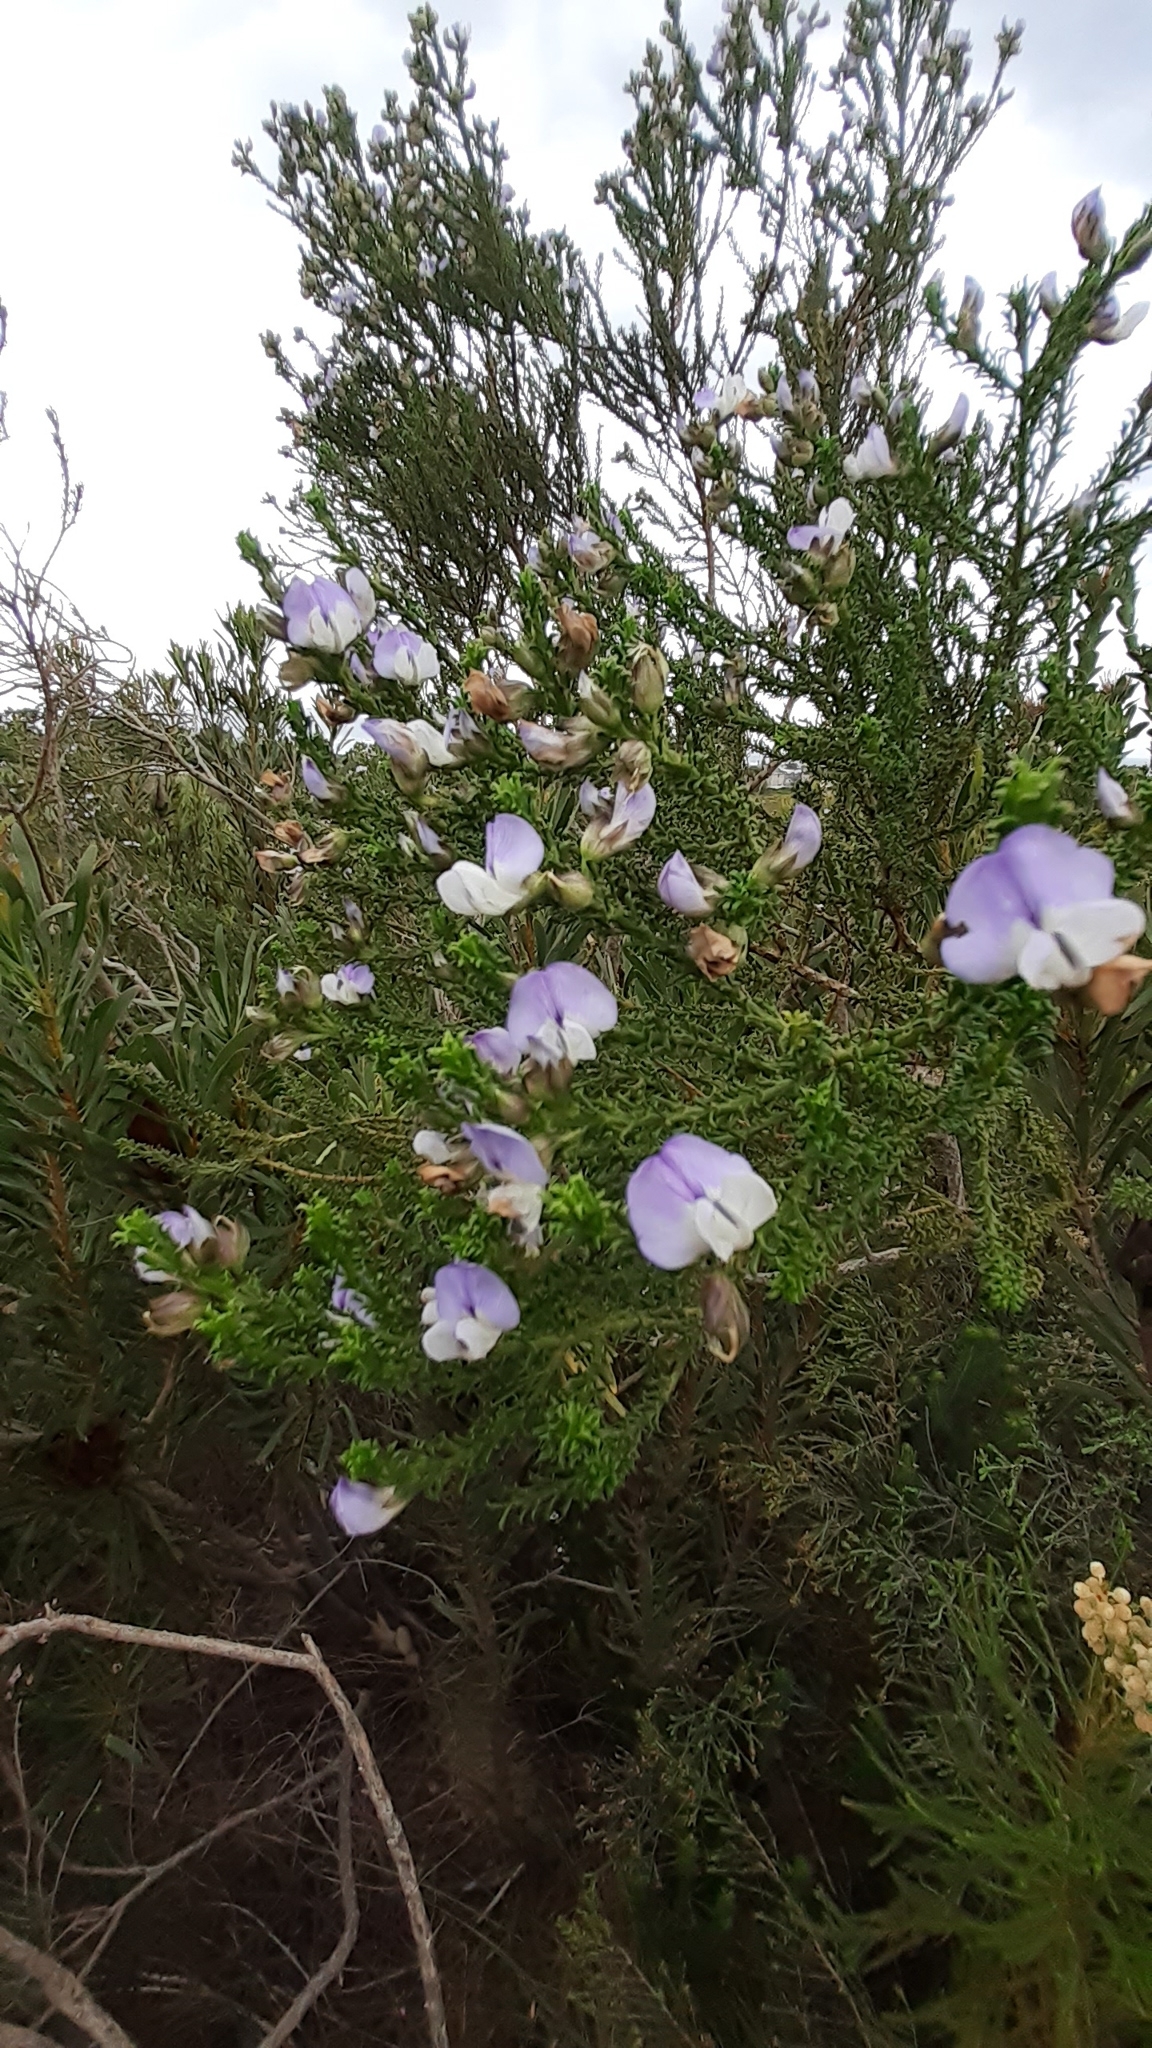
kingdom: Plantae
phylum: Tracheophyta
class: Magnoliopsida
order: Fabales
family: Fabaceae
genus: Psoralea
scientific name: Psoralea aculeata
